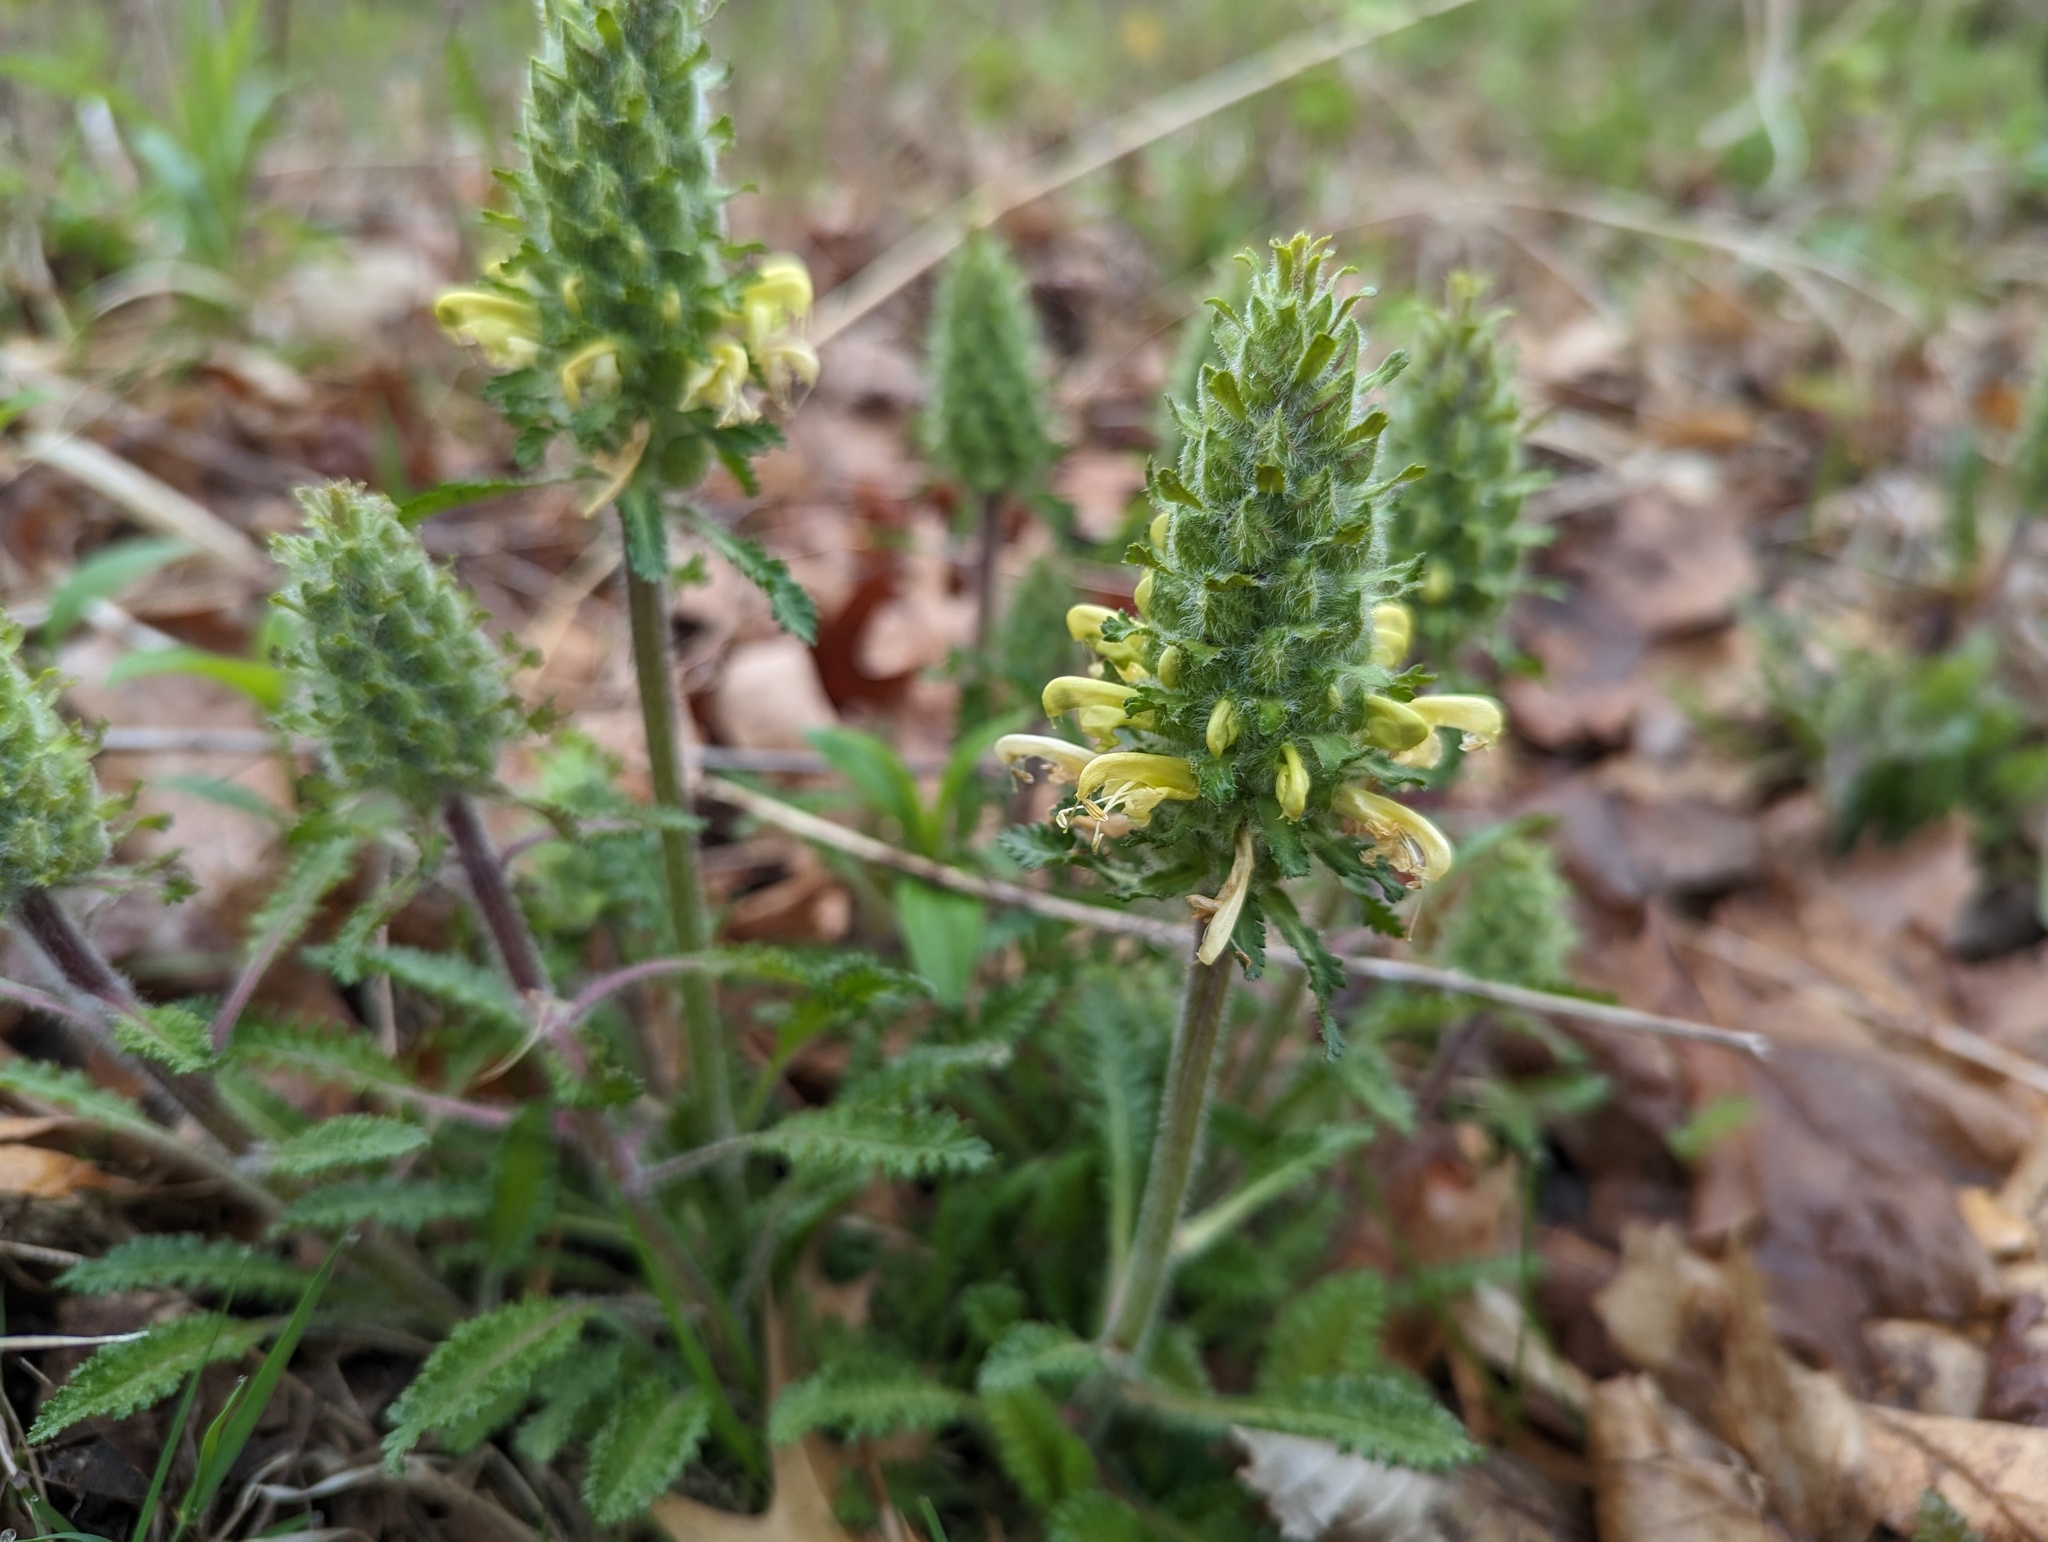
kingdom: Plantae
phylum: Tracheophyta
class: Magnoliopsida
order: Lamiales
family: Orobanchaceae
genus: Pedicularis
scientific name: Pedicularis canadensis
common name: Early lousewort
